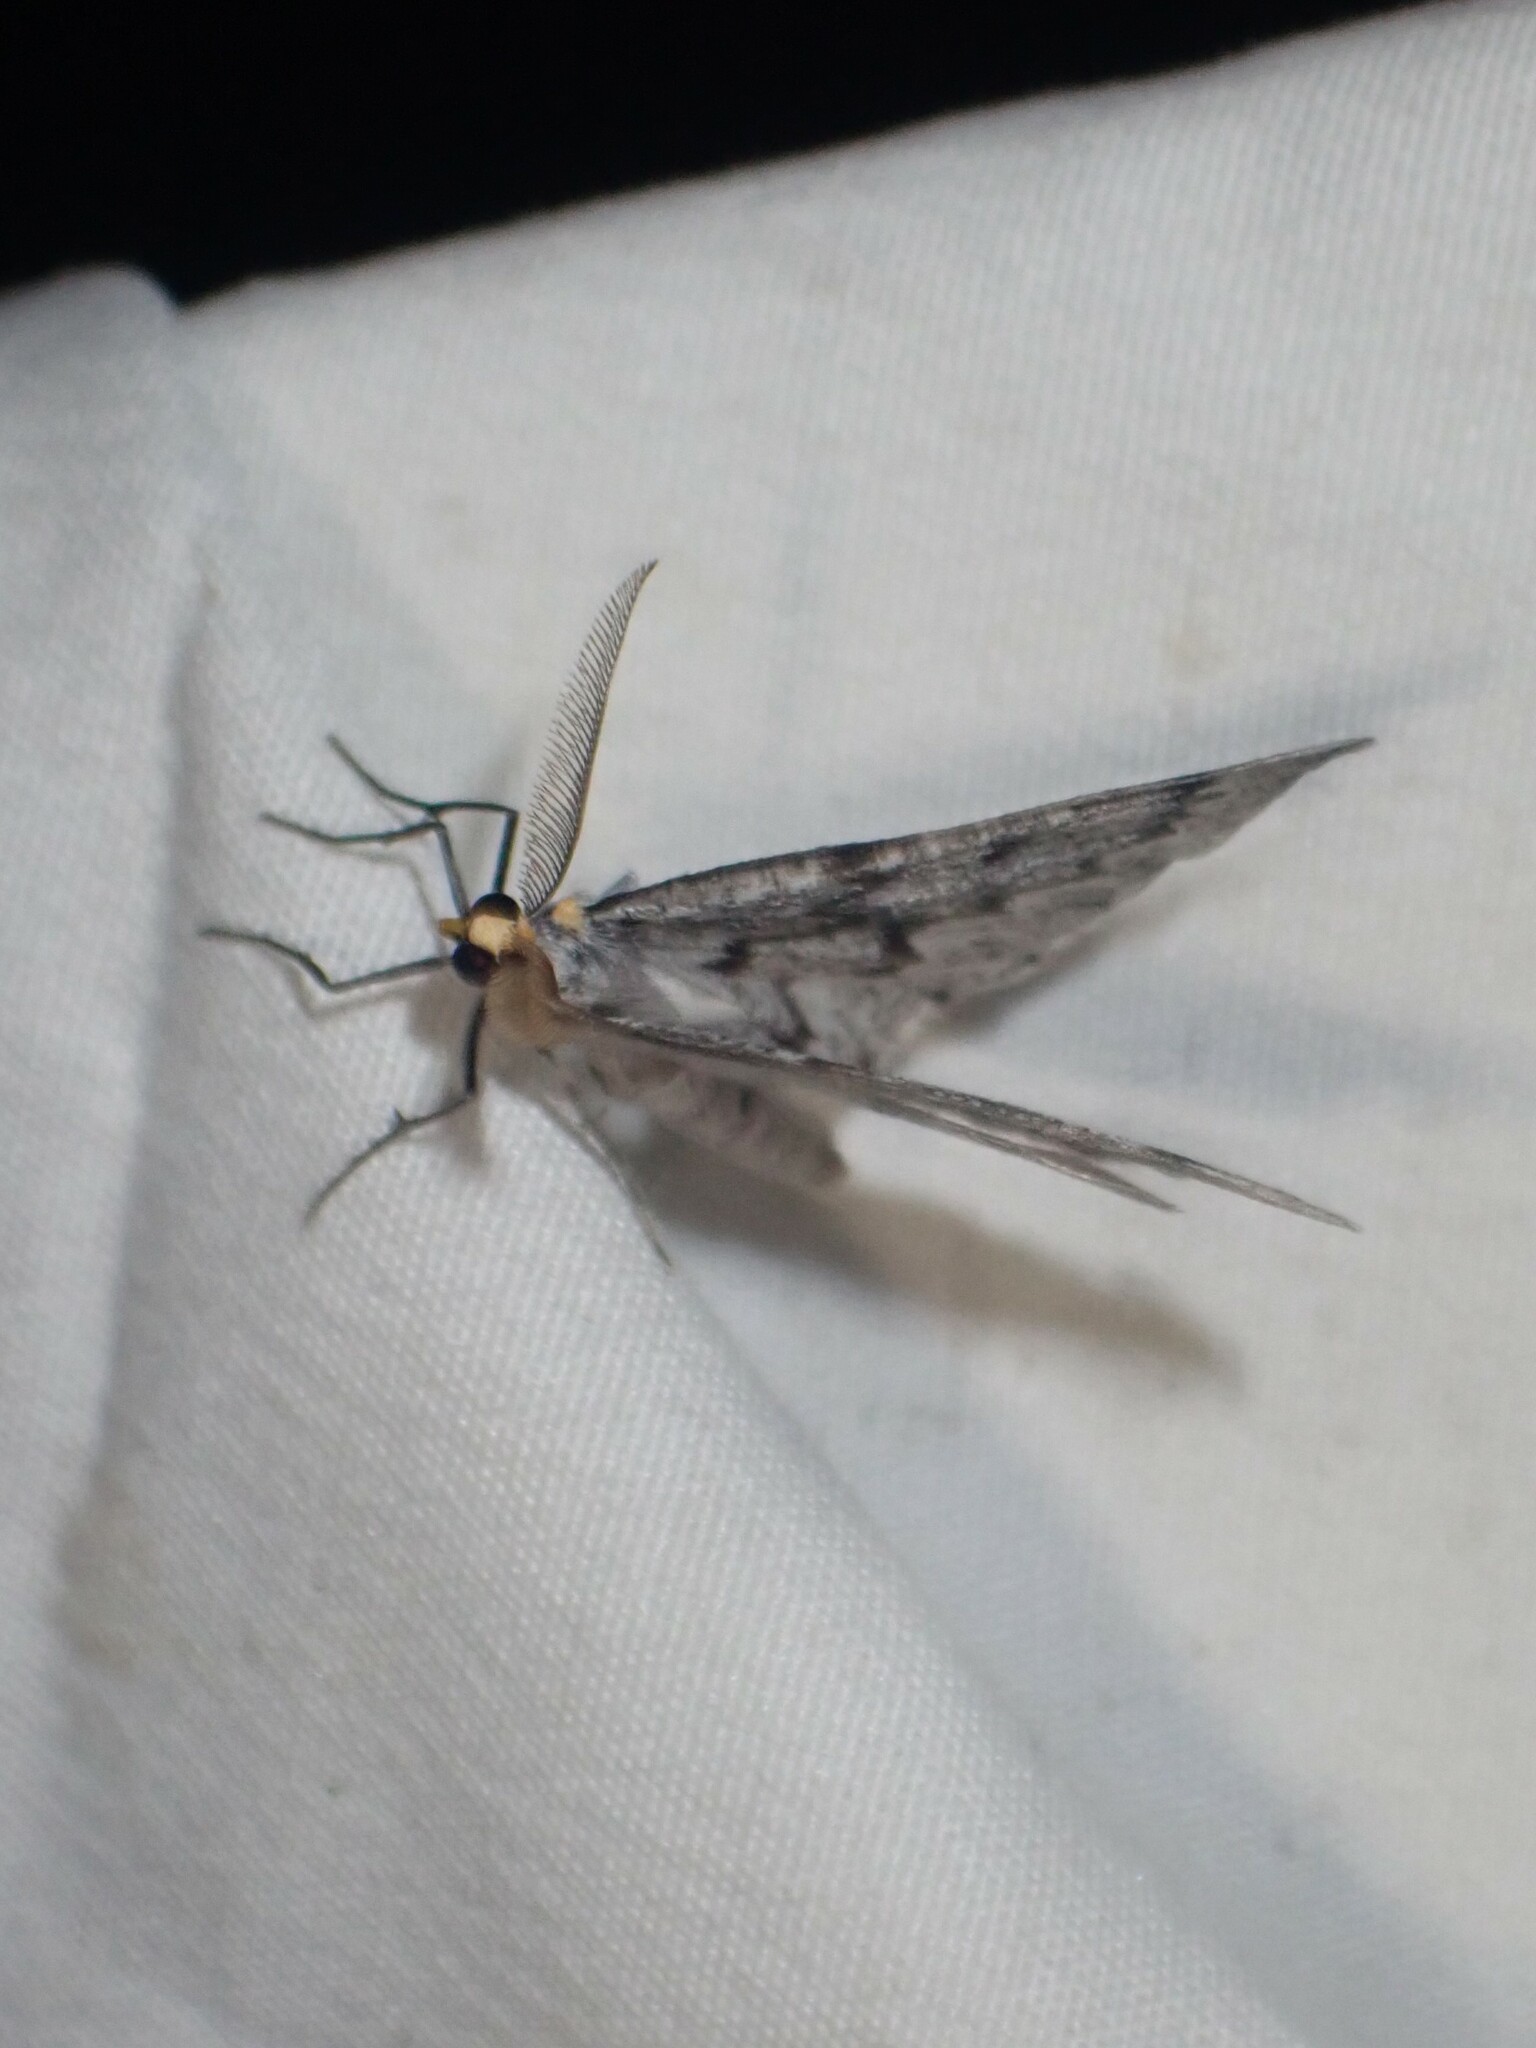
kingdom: Animalia
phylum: Arthropoda
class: Insecta
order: Lepidoptera
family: Geometridae
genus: Nepytia
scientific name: Nepytia canosaria
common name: False hemlock looper
